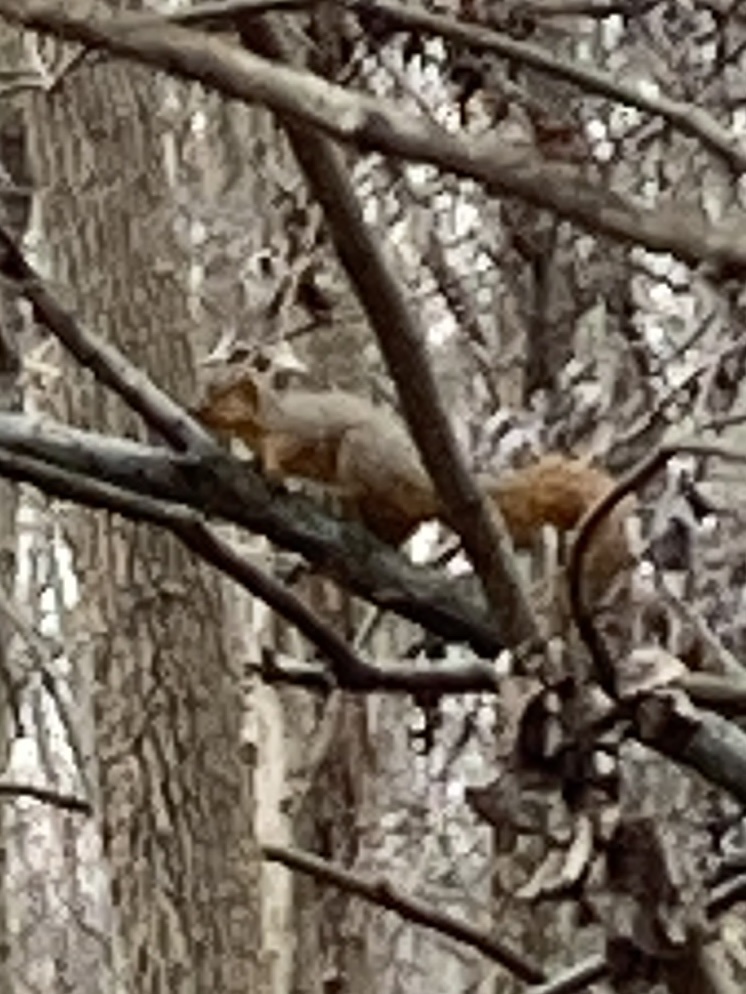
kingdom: Animalia
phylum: Chordata
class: Mammalia
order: Rodentia
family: Sciuridae
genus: Sciurus
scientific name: Sciurus niger
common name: Fox squirrel
